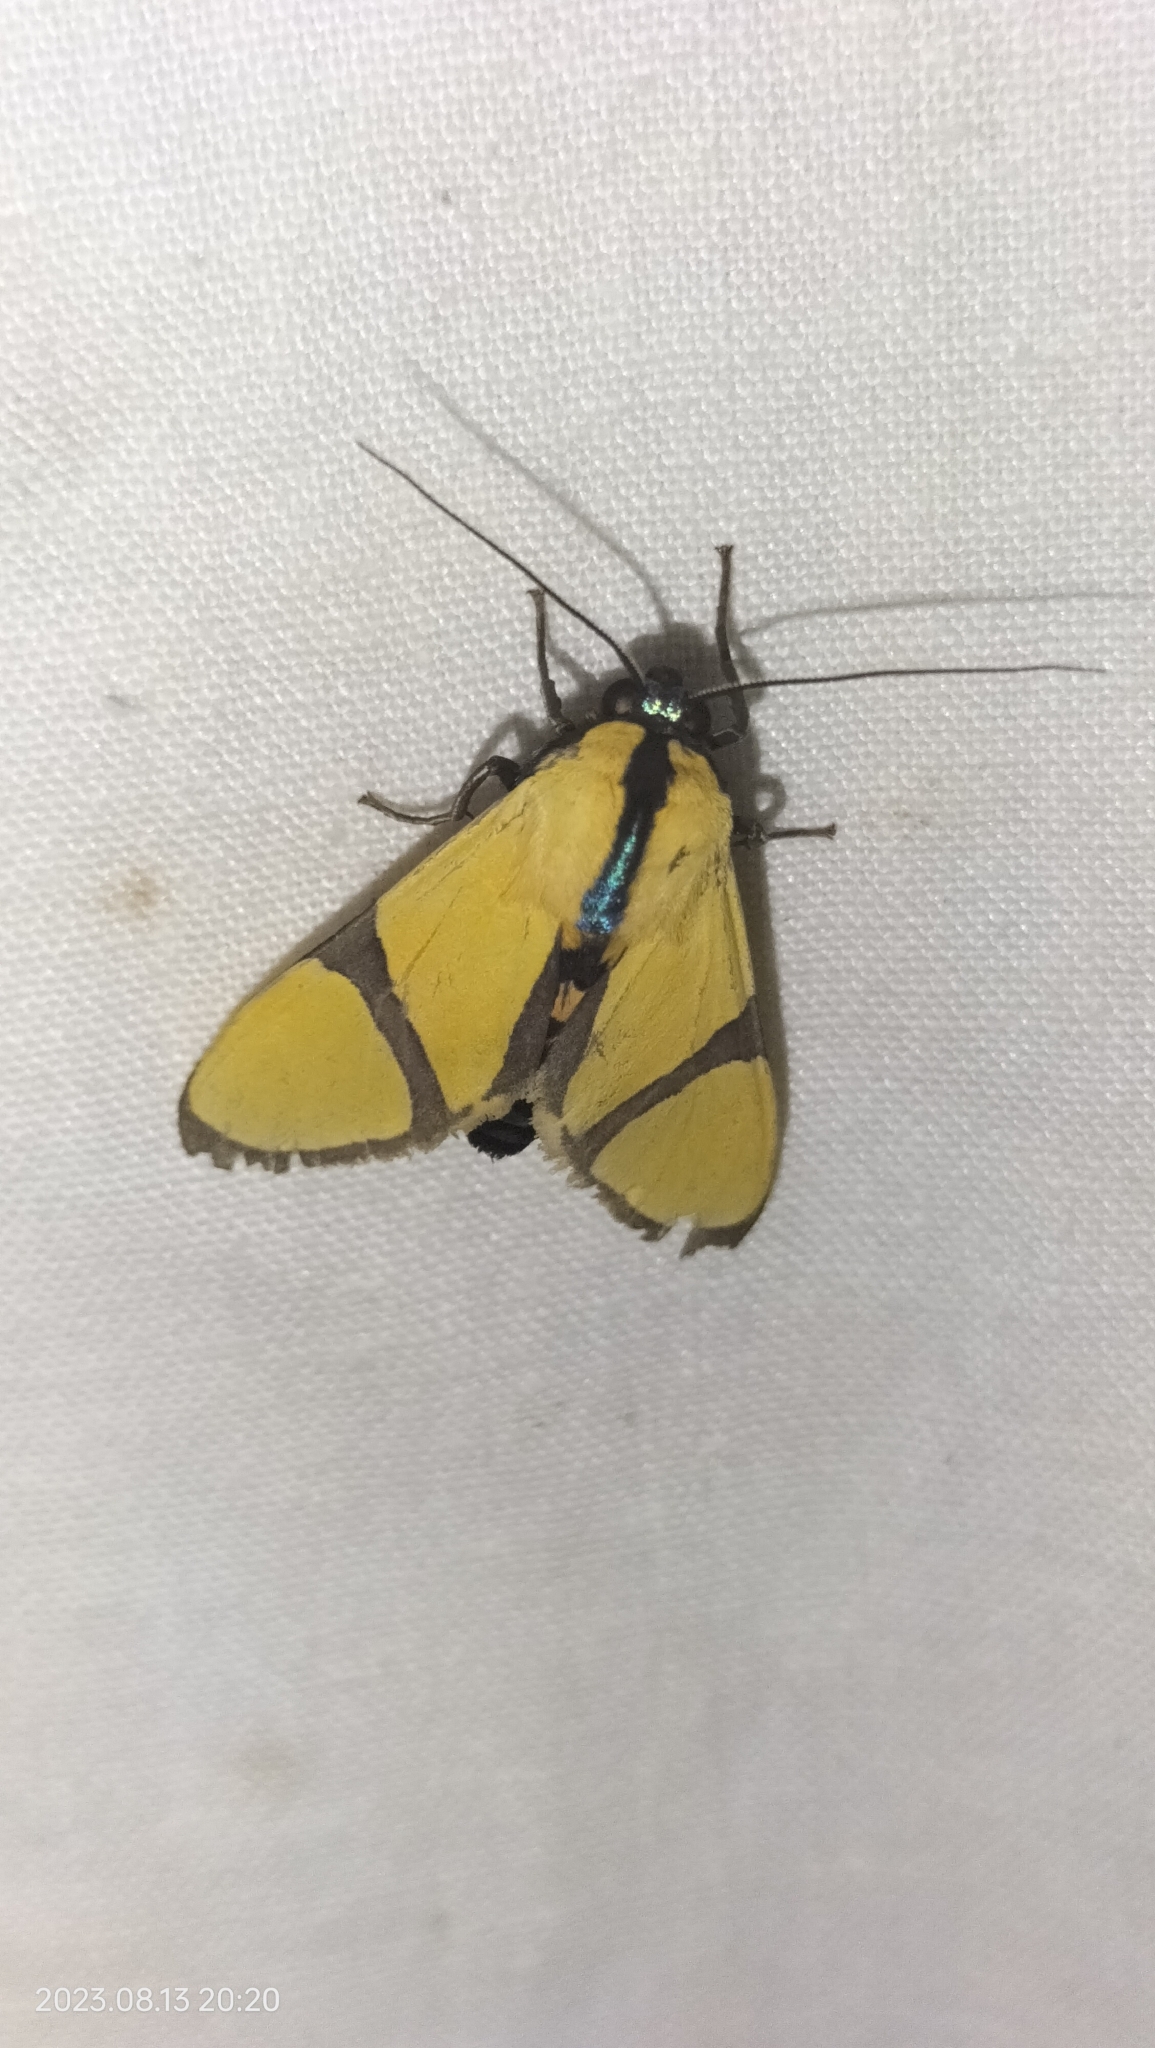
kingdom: Animalia
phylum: Arthropoda
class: Insecta
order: Lepidoptera
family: Erebidae
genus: Ormetica
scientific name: Ormetica ameoides
